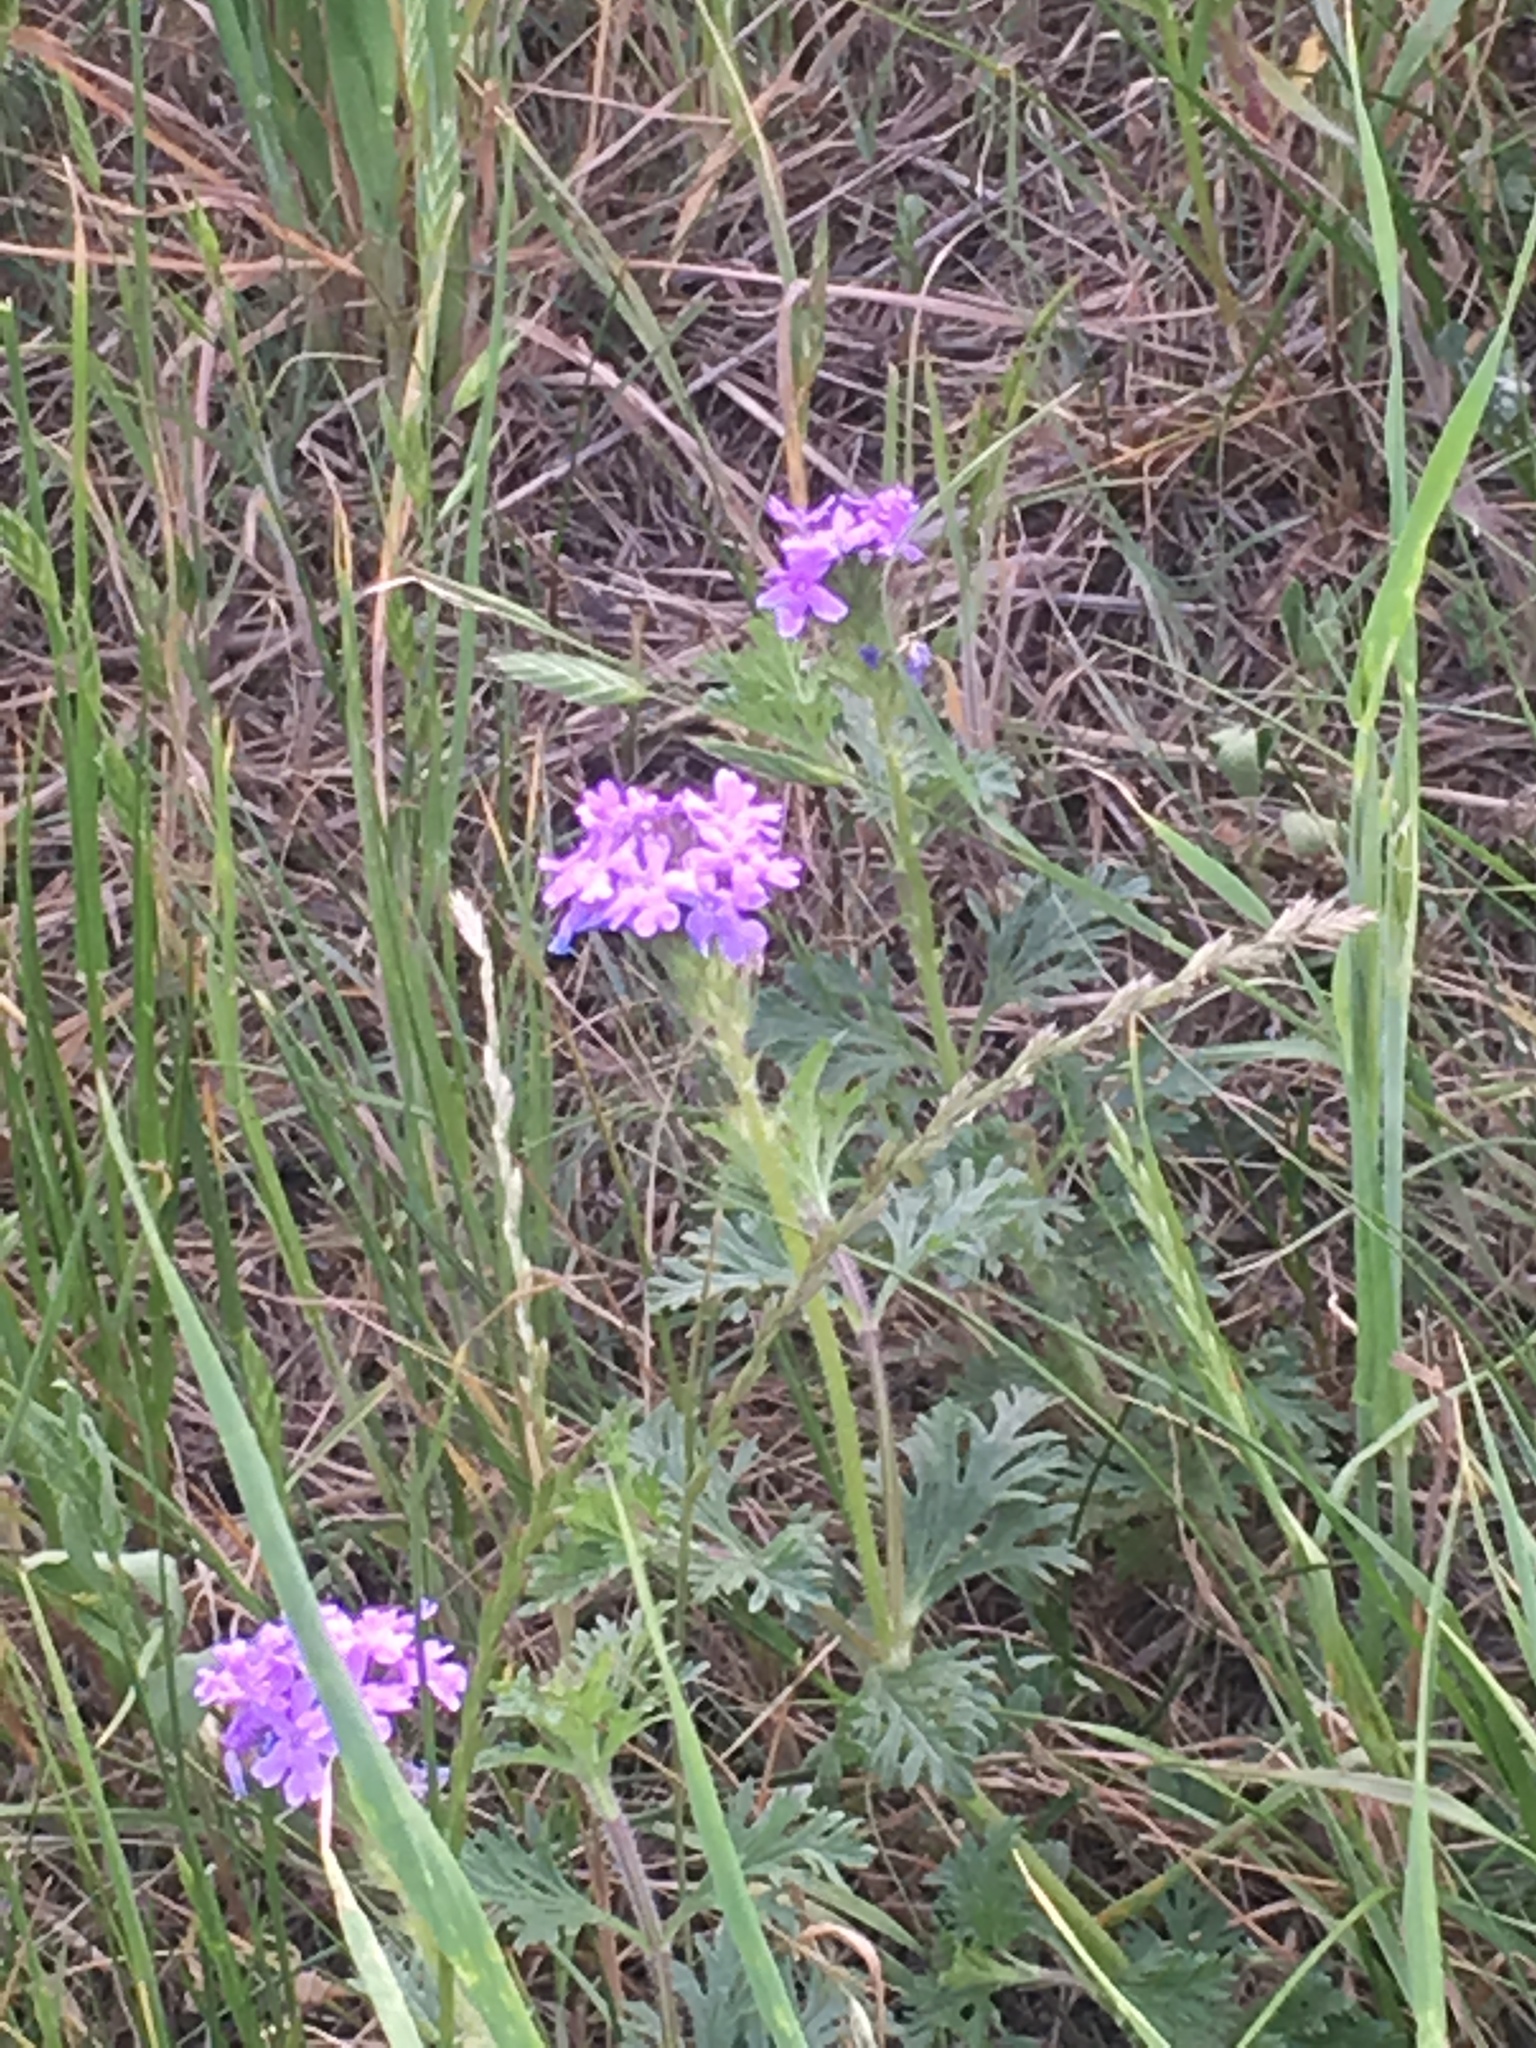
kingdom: Plantae
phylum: Tracheophyta
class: Magnoliopsida
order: Lamiales
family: Verbenaceae
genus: Verbena
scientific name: Verbena bipinnatifida
